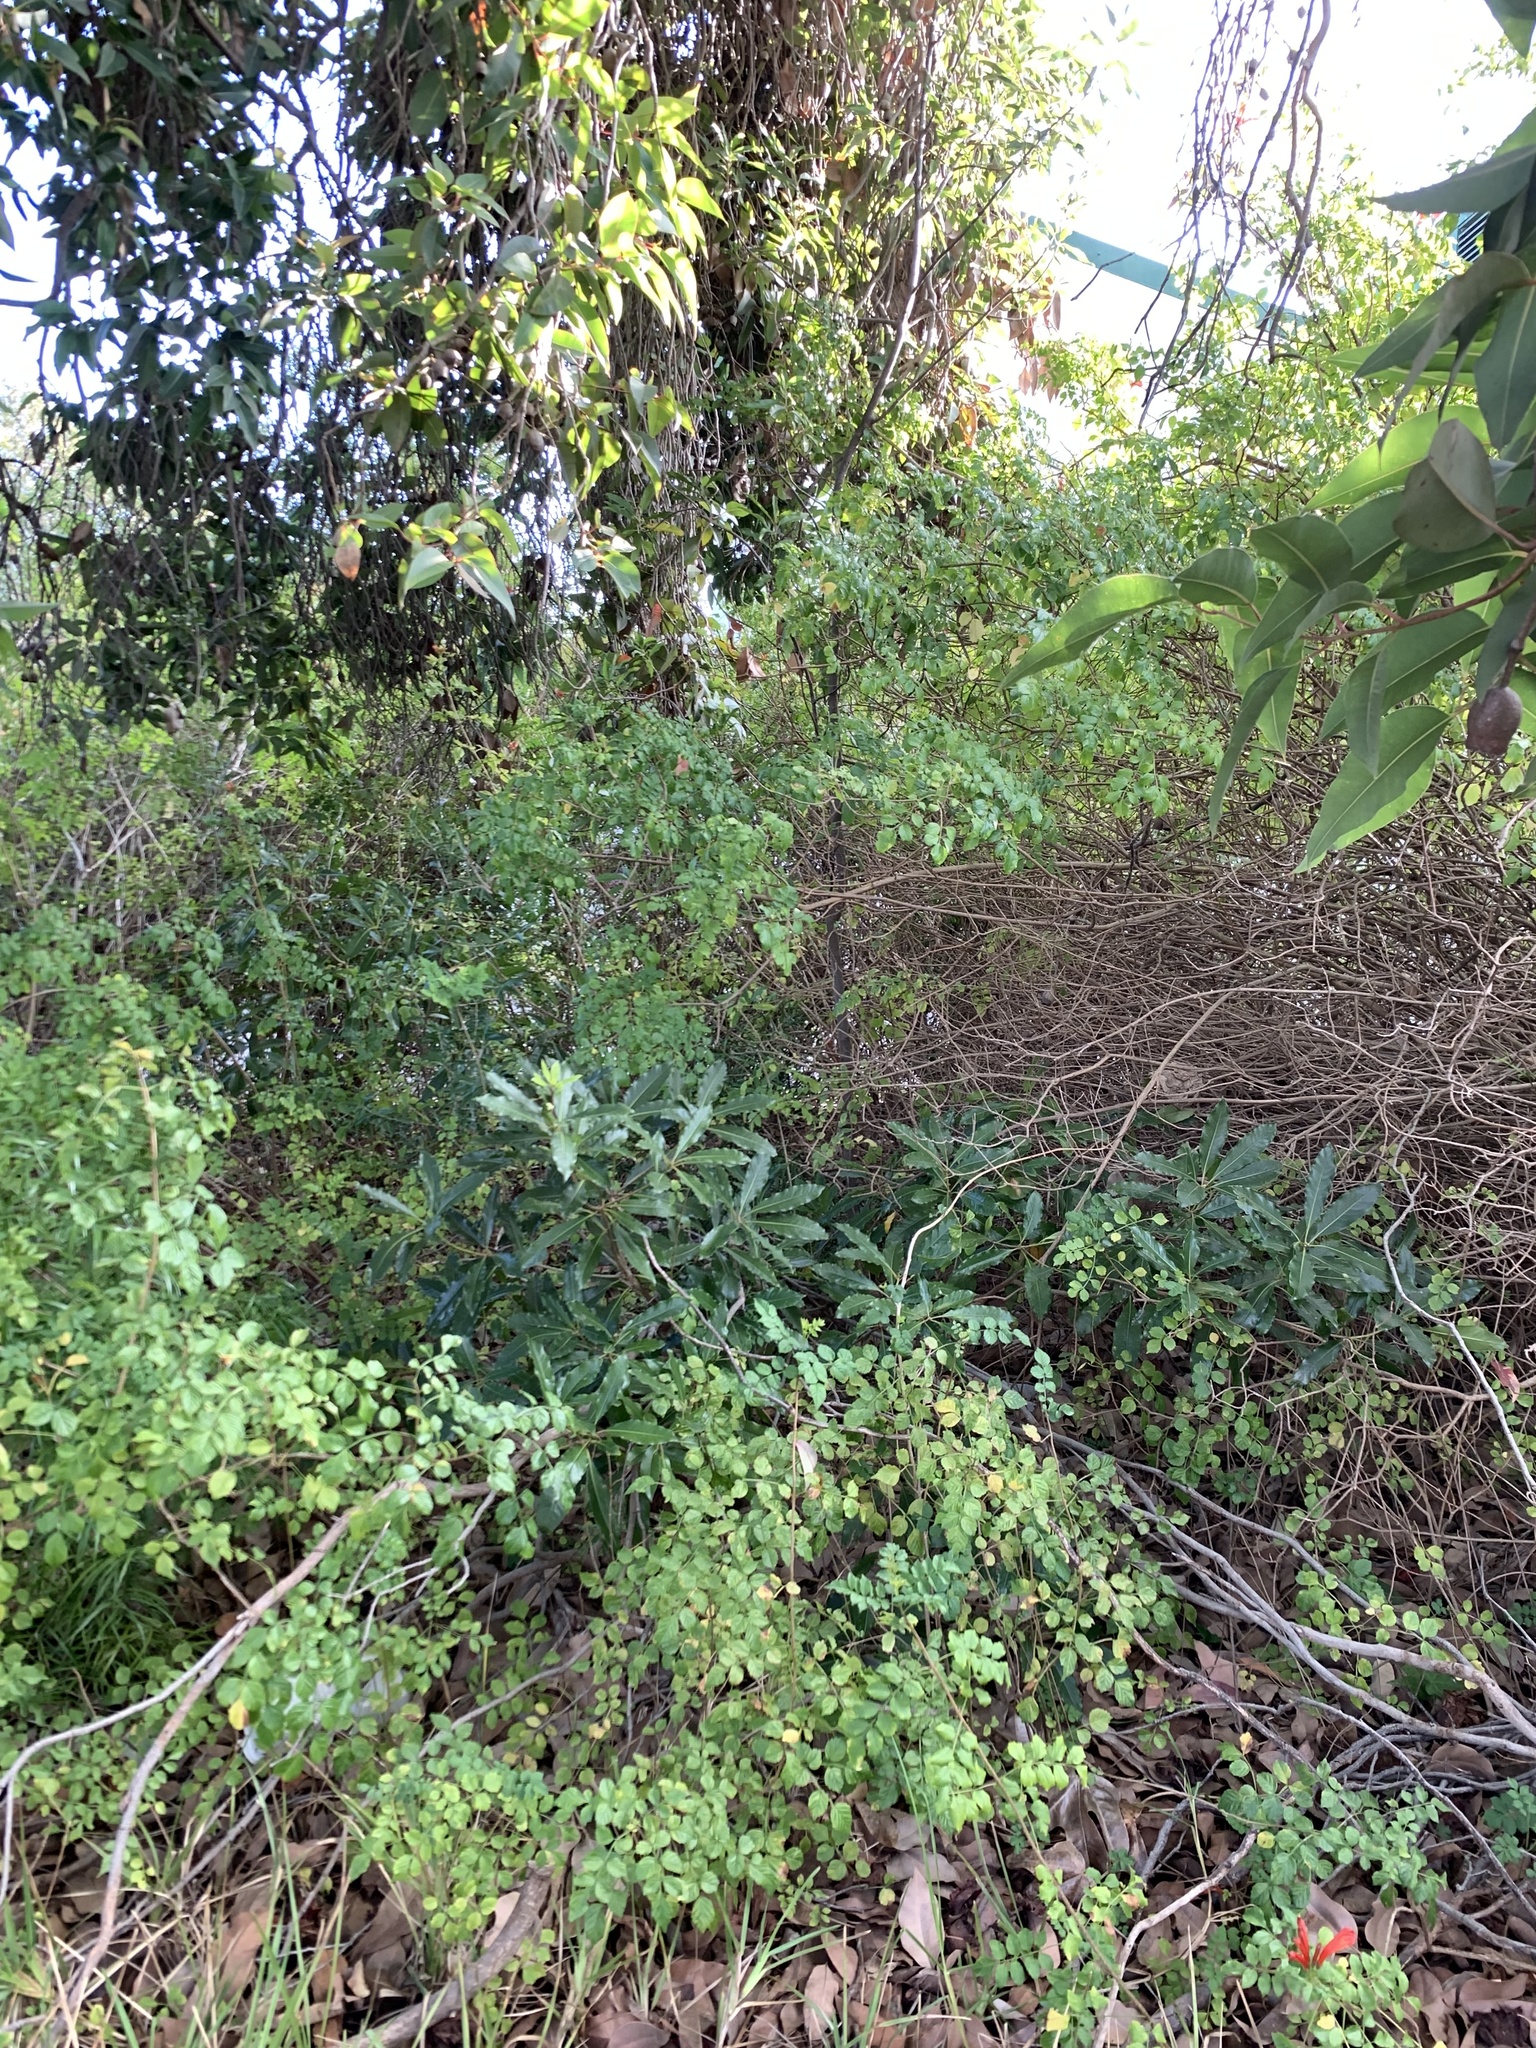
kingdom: Plantae
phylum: Tracheophyta
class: Magnoliopsida
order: Apiales
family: Pittosporaceae
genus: Pittosporum
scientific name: Pittosporum undulatum
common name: Australian cheesewood
